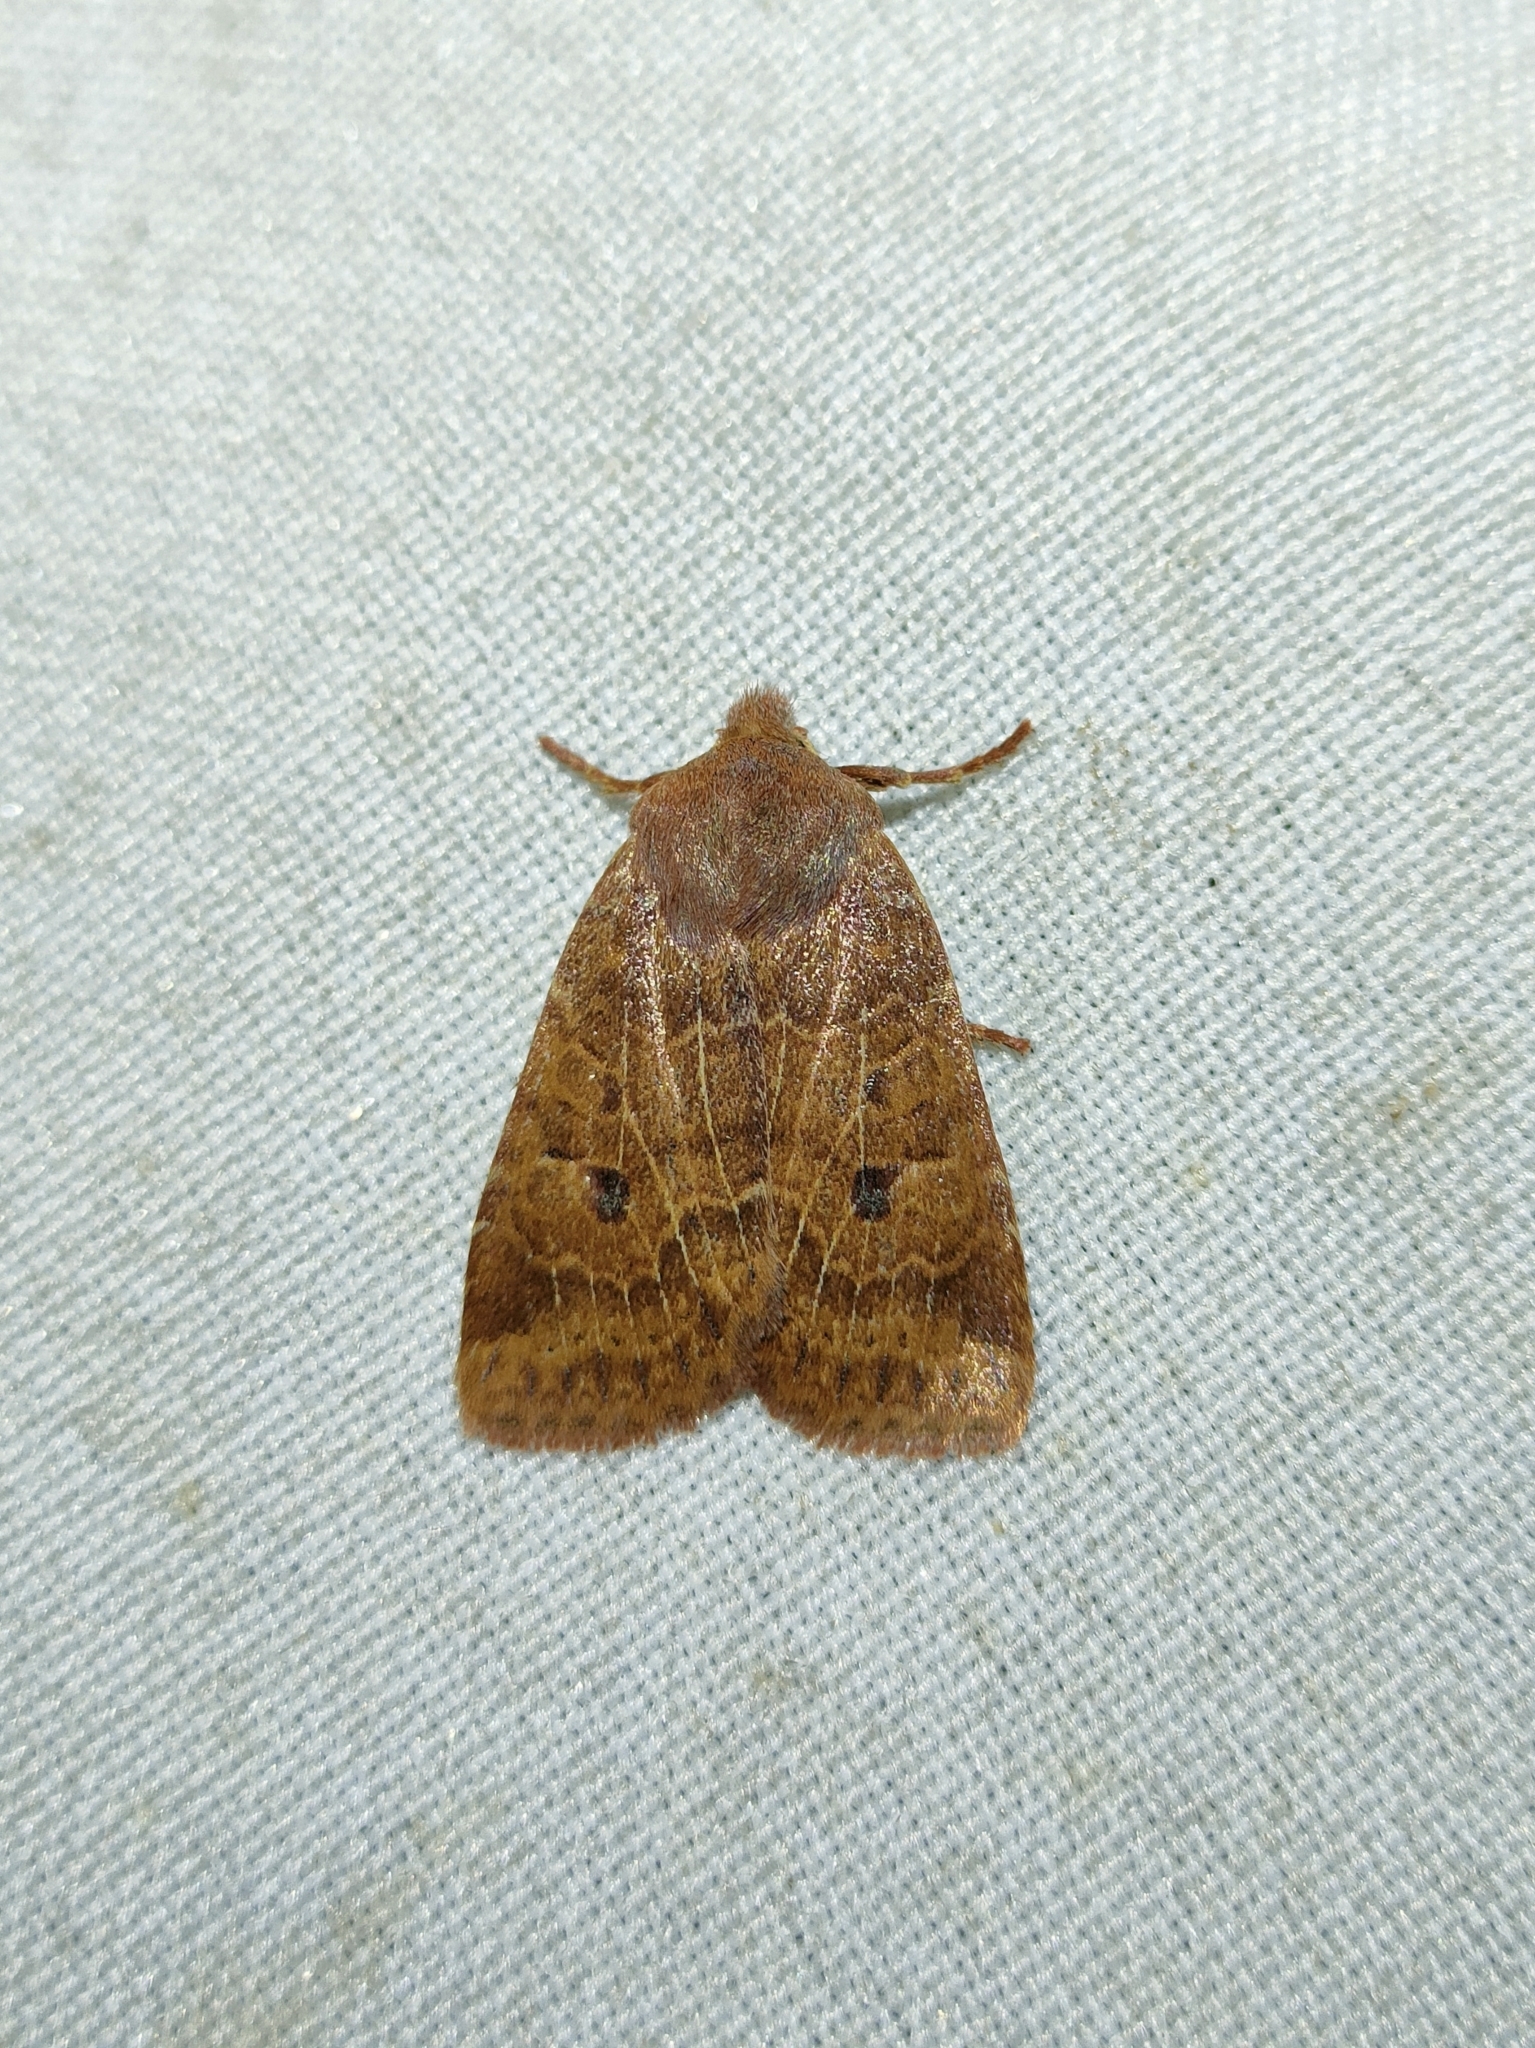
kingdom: Animalia
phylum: Arthropoda
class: Insecta
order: Lepidoptera
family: Noctuidae
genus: Conistra
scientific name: Conistra vaccinii
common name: Chestnut
